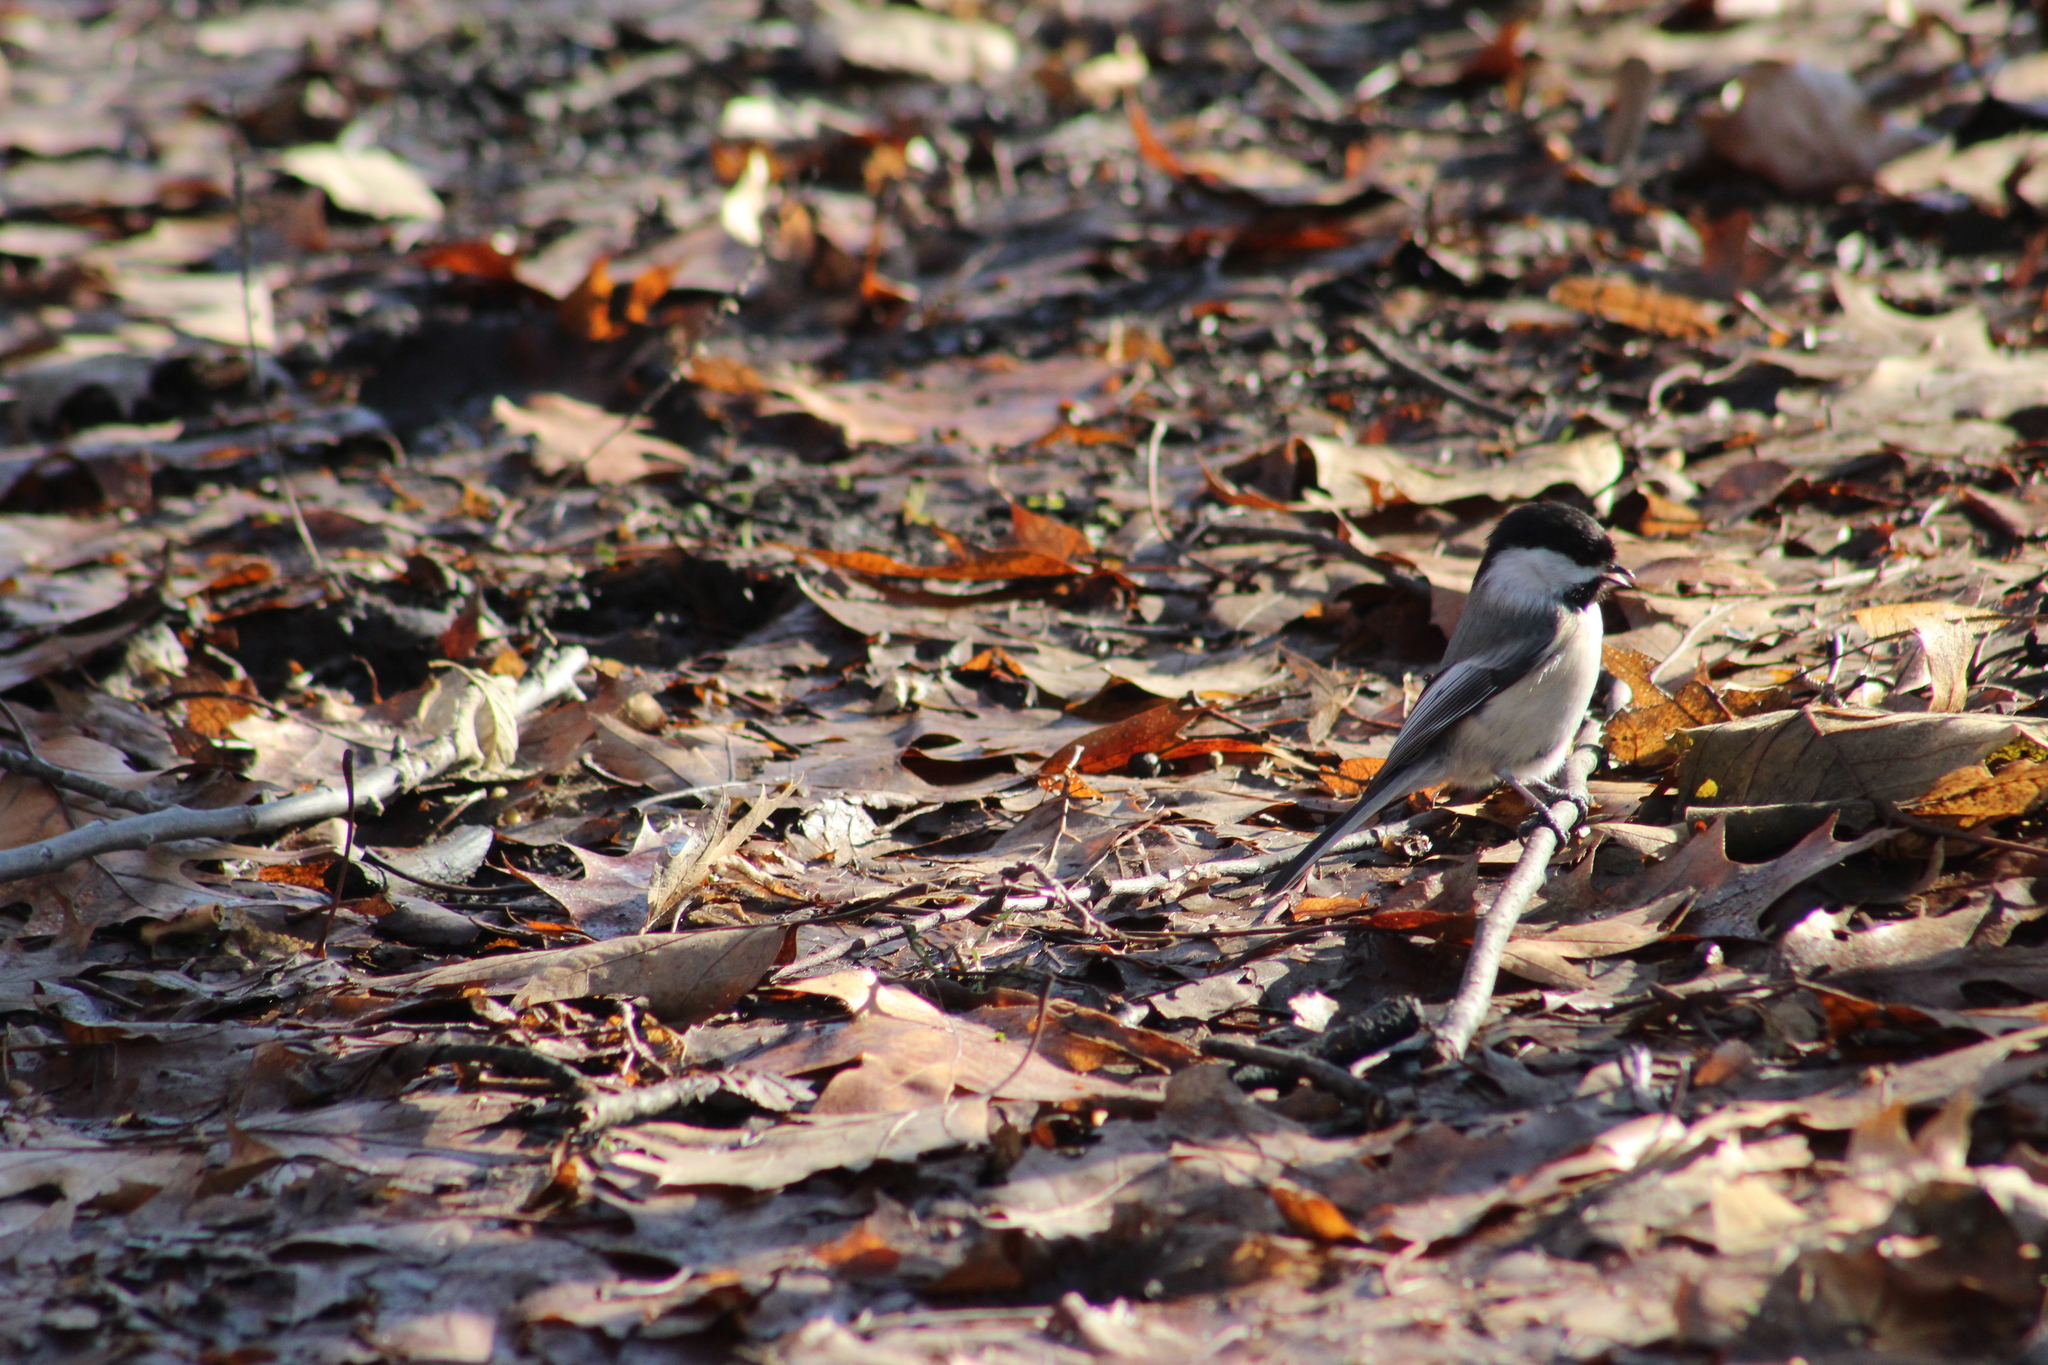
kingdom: Animalia
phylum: Chordata
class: Aves
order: Passeriformes
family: Paridae
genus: Poecile
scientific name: Poecile atricapillus
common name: Black-capped chickadee
